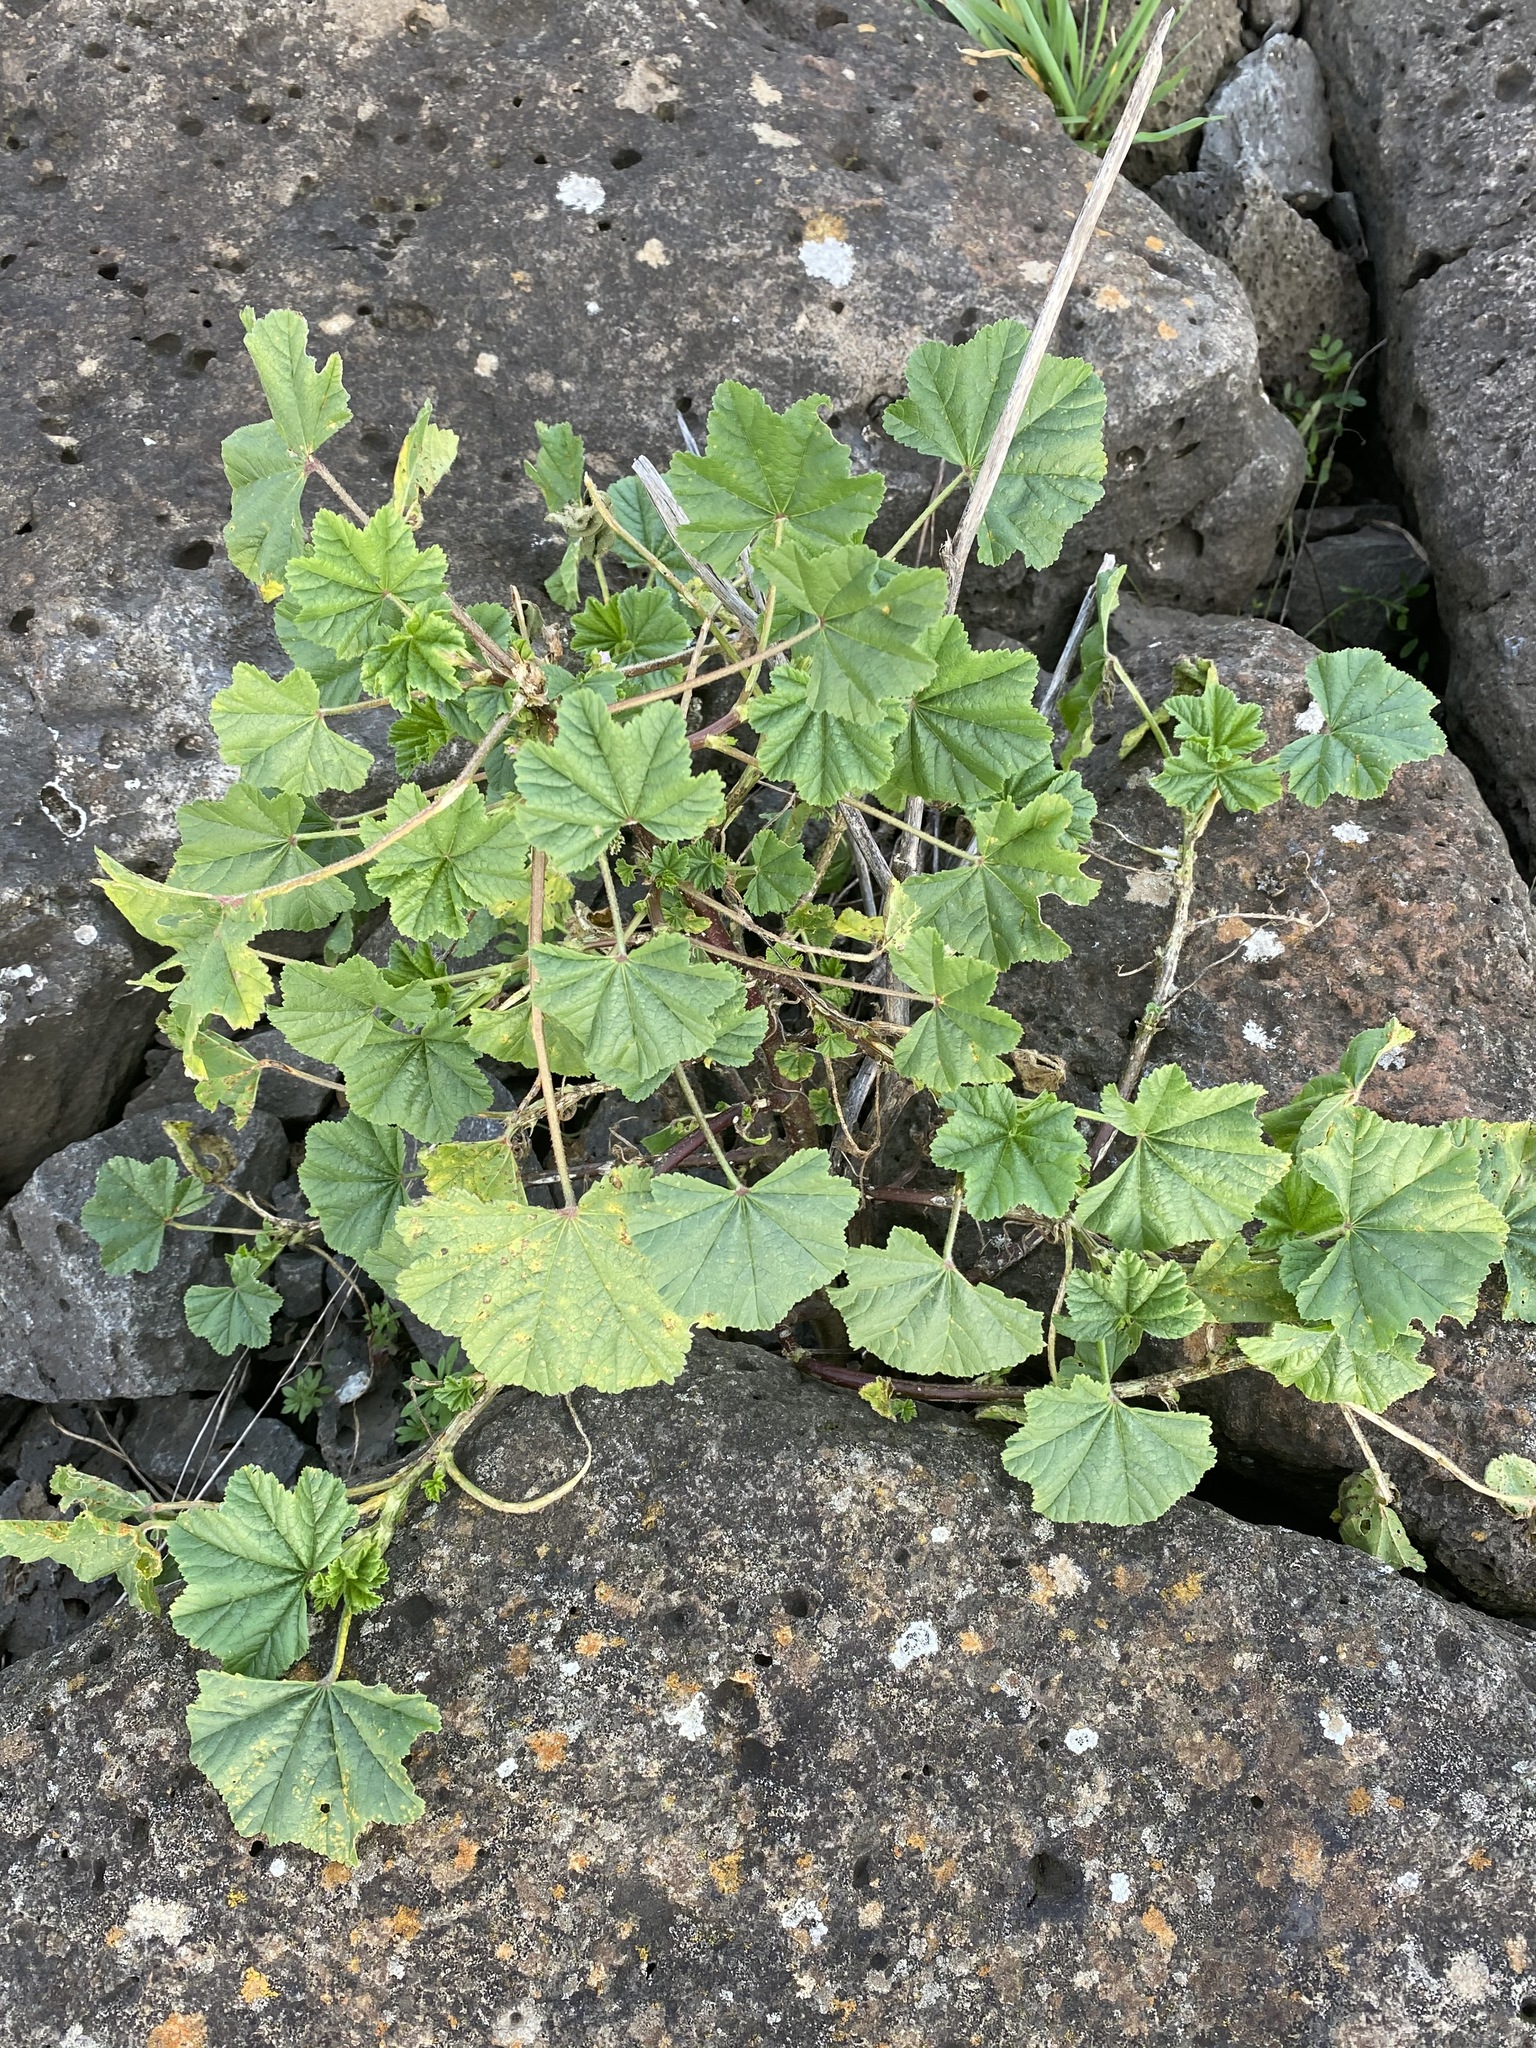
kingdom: Plantae
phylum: Tracheophyta
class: Magnoliopsida
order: Malvales
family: Malvaceae
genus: Malva
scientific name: Malva parviflora
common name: Least mallow
